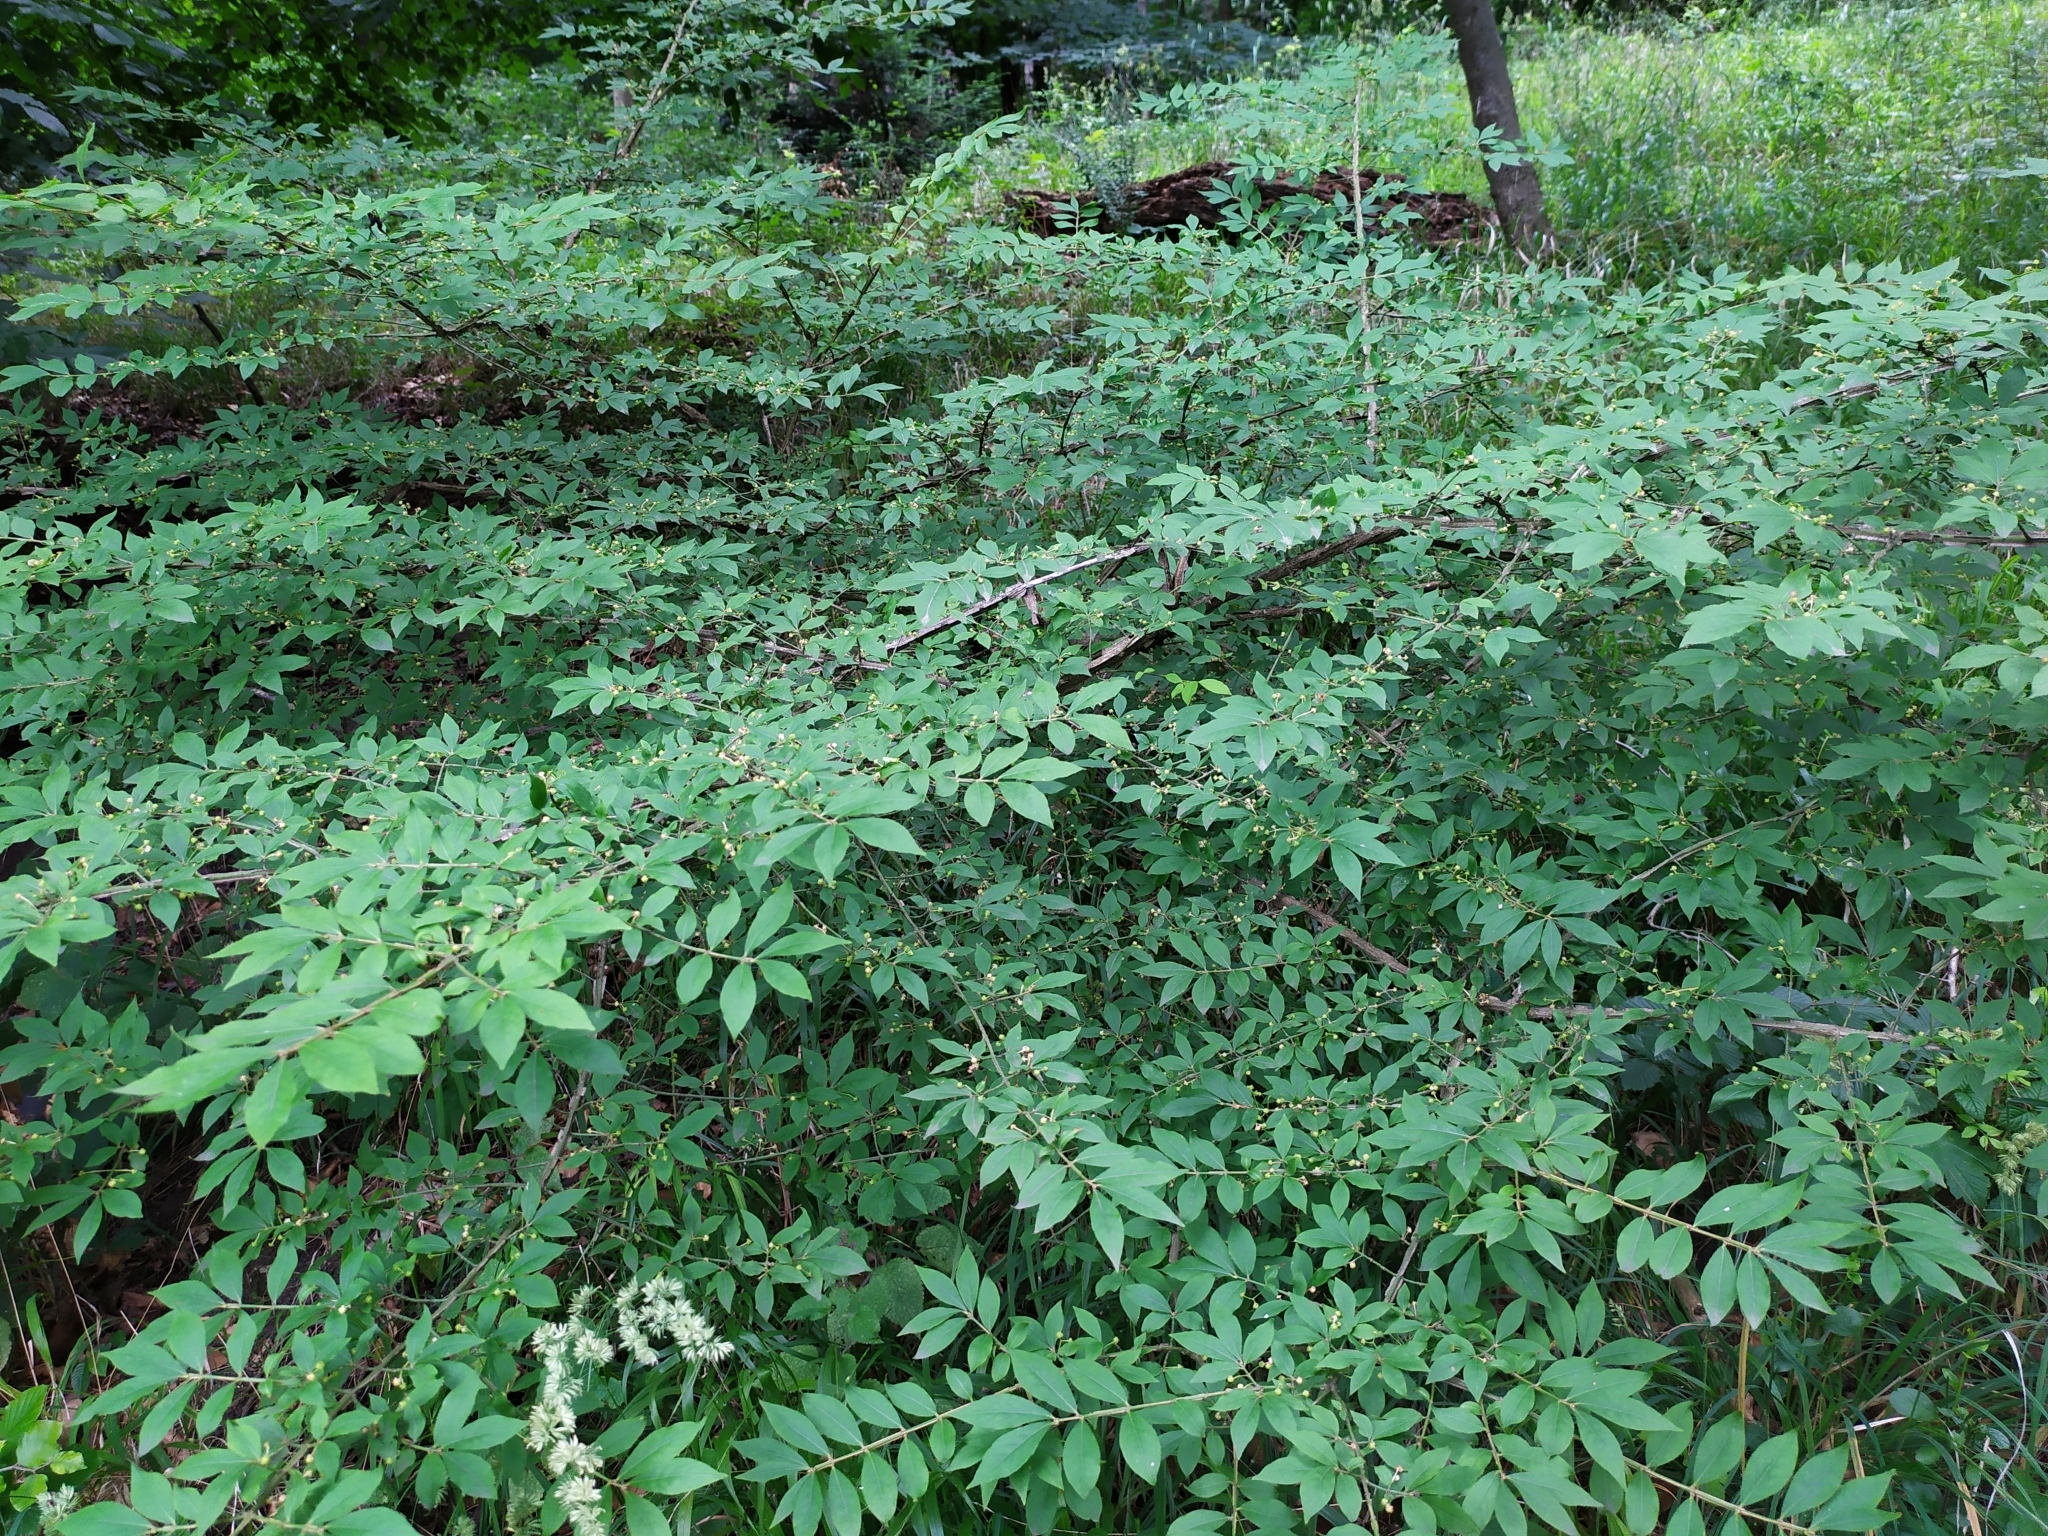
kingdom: Plantae
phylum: Tracheophyta
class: Magnoliopsida
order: Celastrales
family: Celastraceae
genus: Euonymus
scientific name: Euonymus alatus
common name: Winged euonymus
